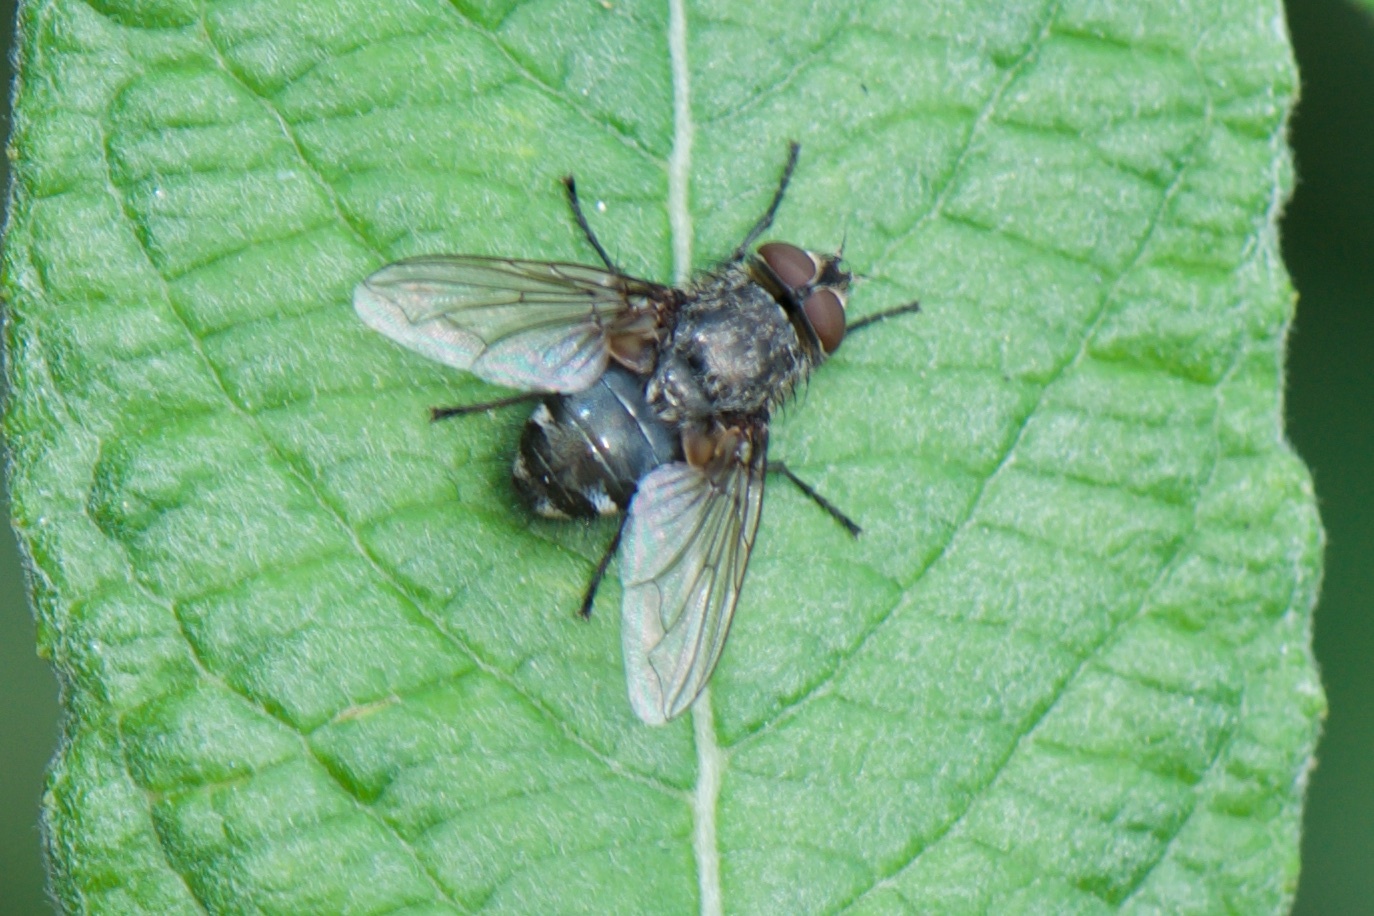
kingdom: Animalia
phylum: Arthropoda
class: Insecta
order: Diptera
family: Polleniidae
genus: Pollenia
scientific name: Pollenia
